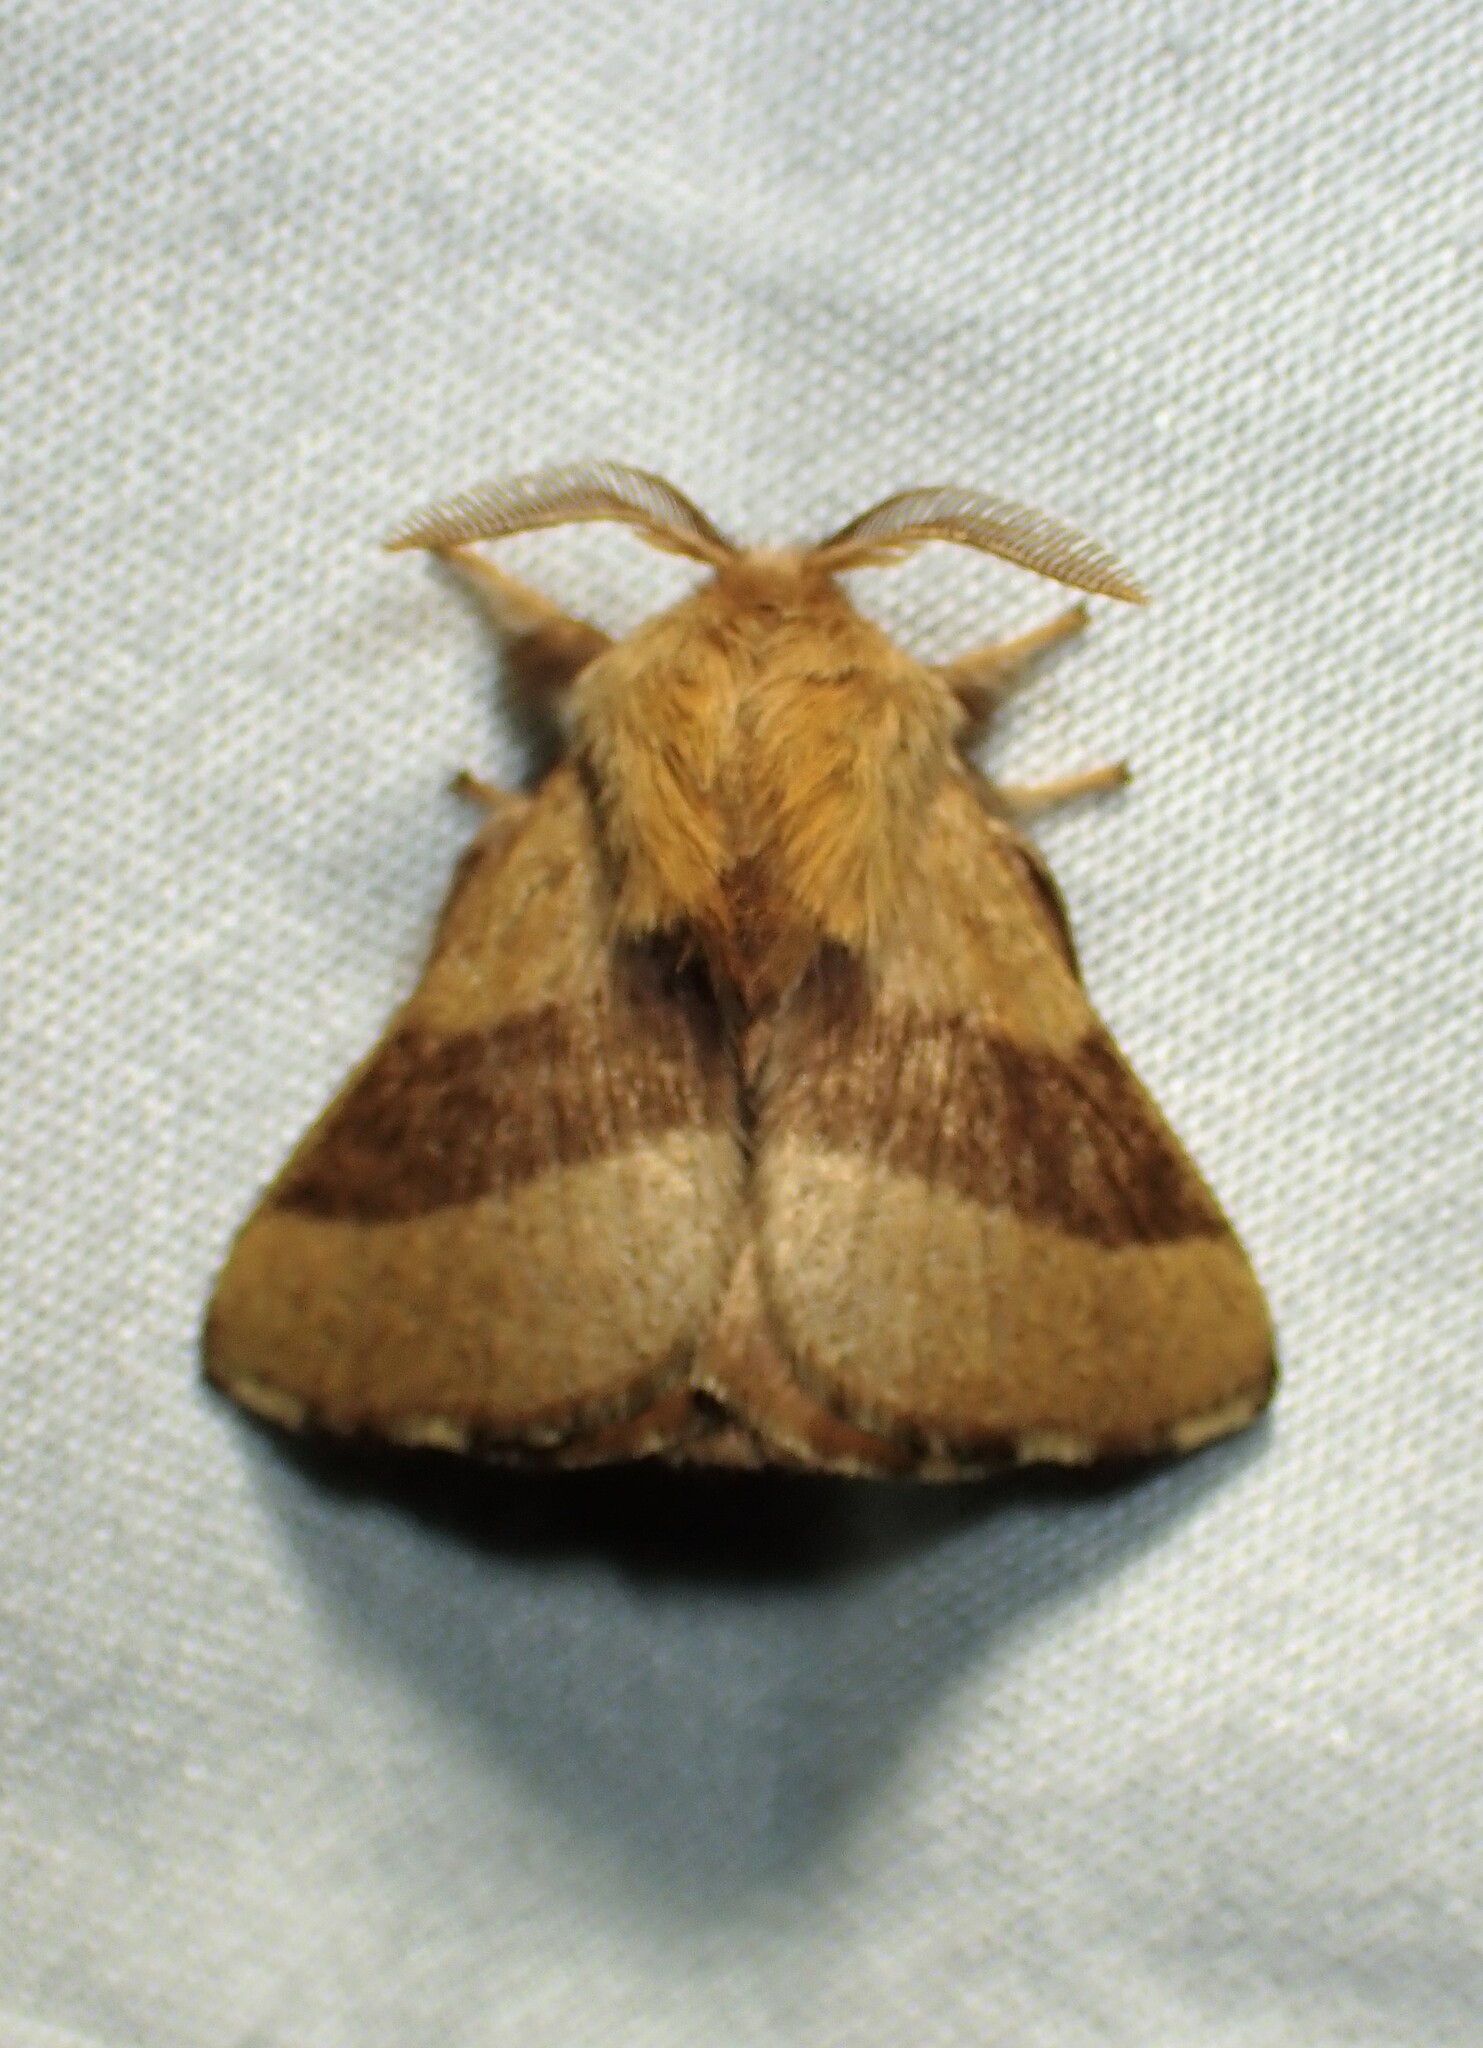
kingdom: Animalia
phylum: Arthropoda
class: Insecta
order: Lepidoptera
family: Lasiocampidae
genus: Malacosoma
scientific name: Malacosoma disstria
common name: Forest tent caterpillar
